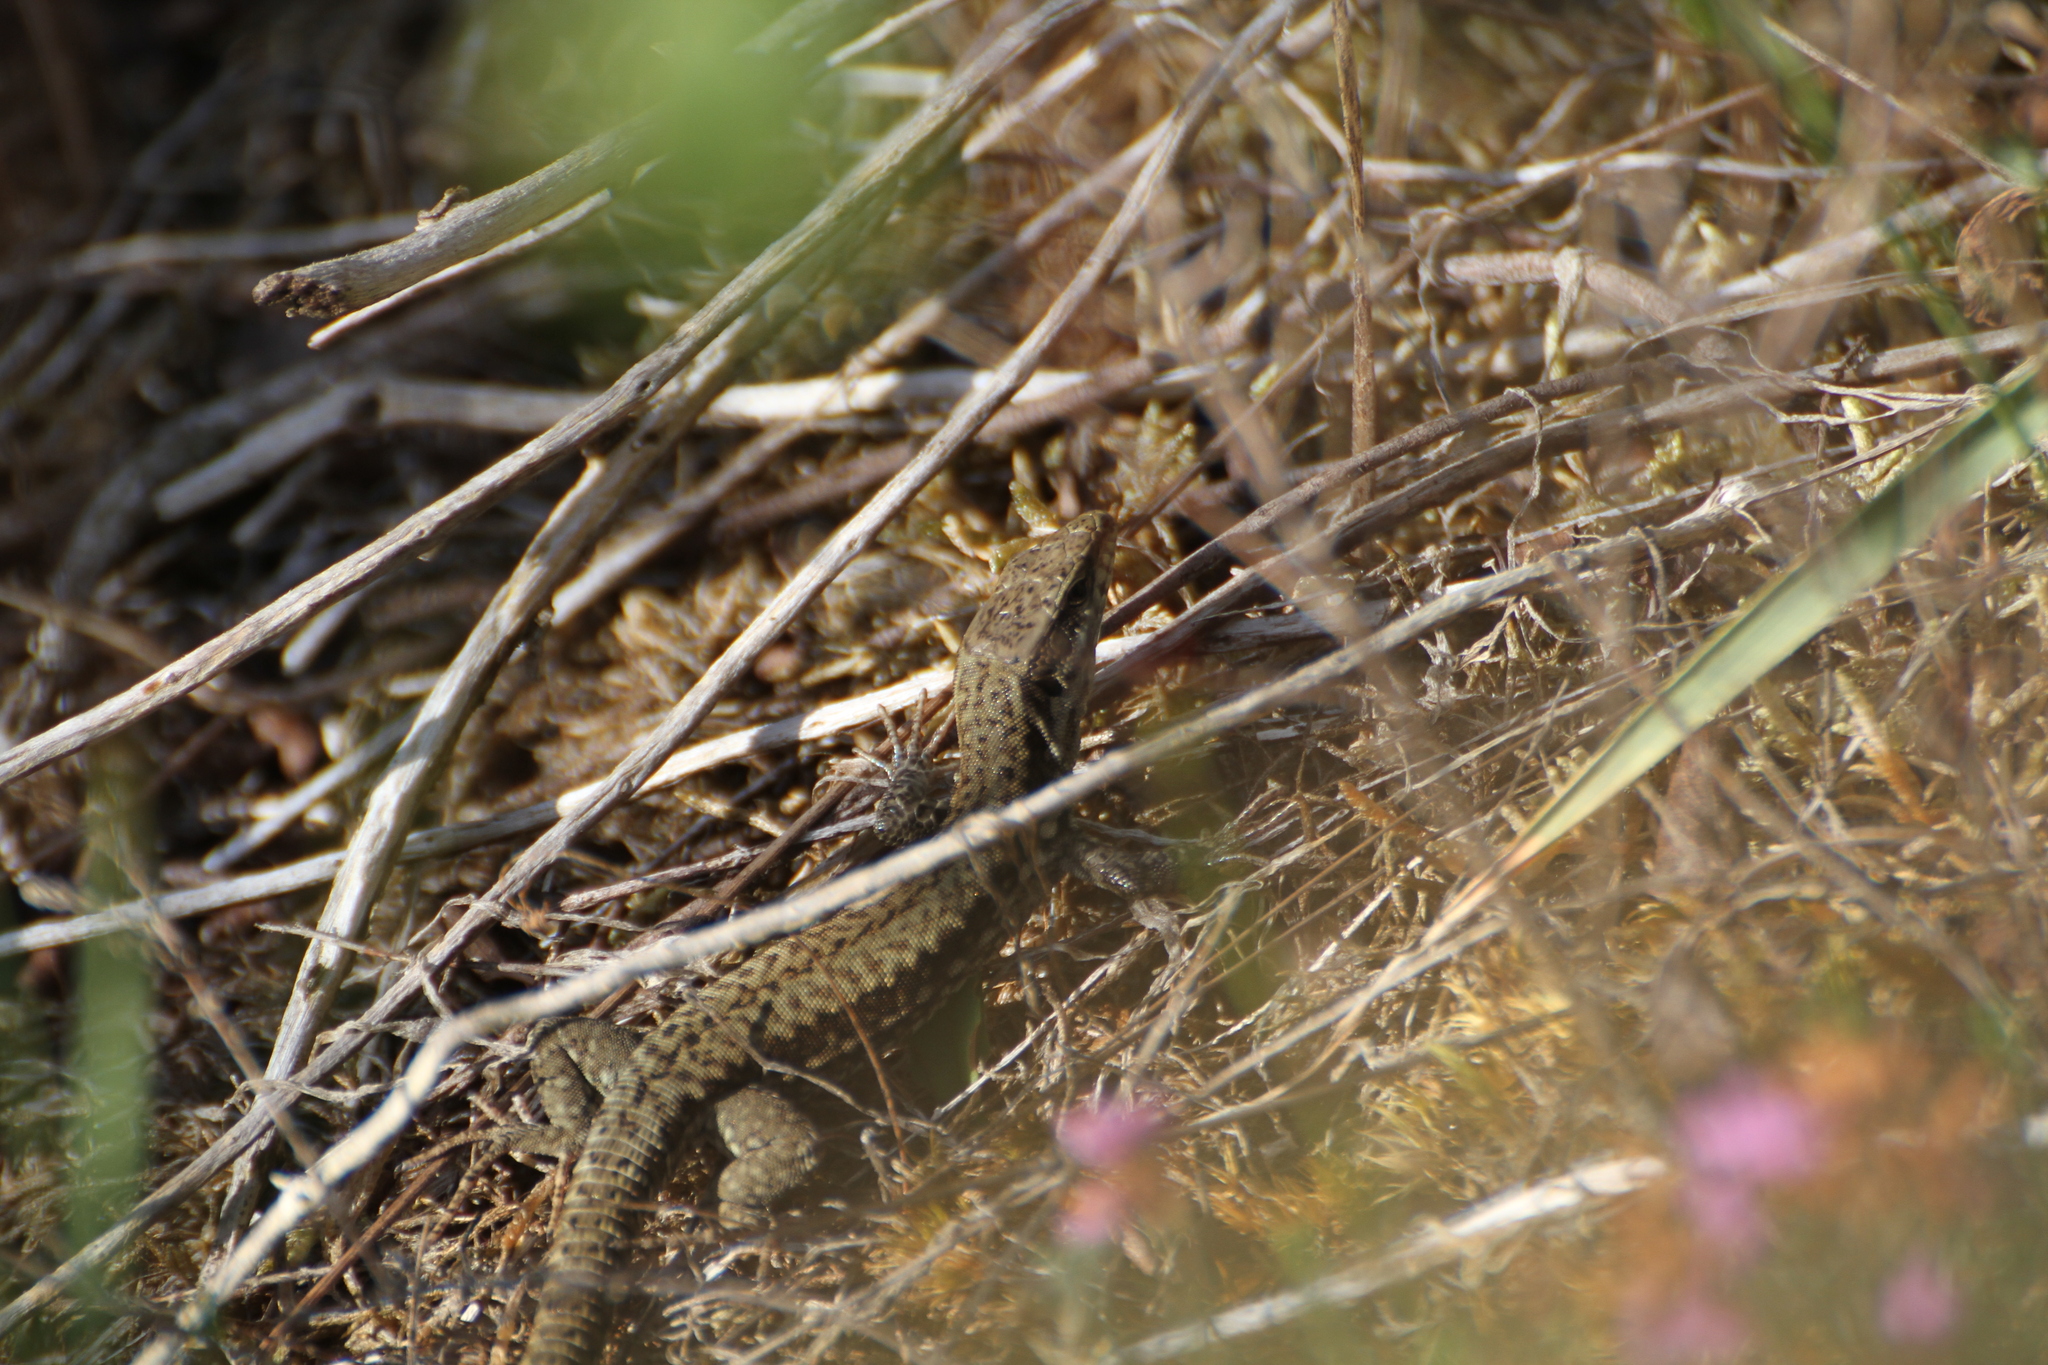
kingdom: Animalia
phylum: Chordata
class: Squamata
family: Lacertidae
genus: Podarcis
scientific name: Podarcis muralis
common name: Common wall lizard
